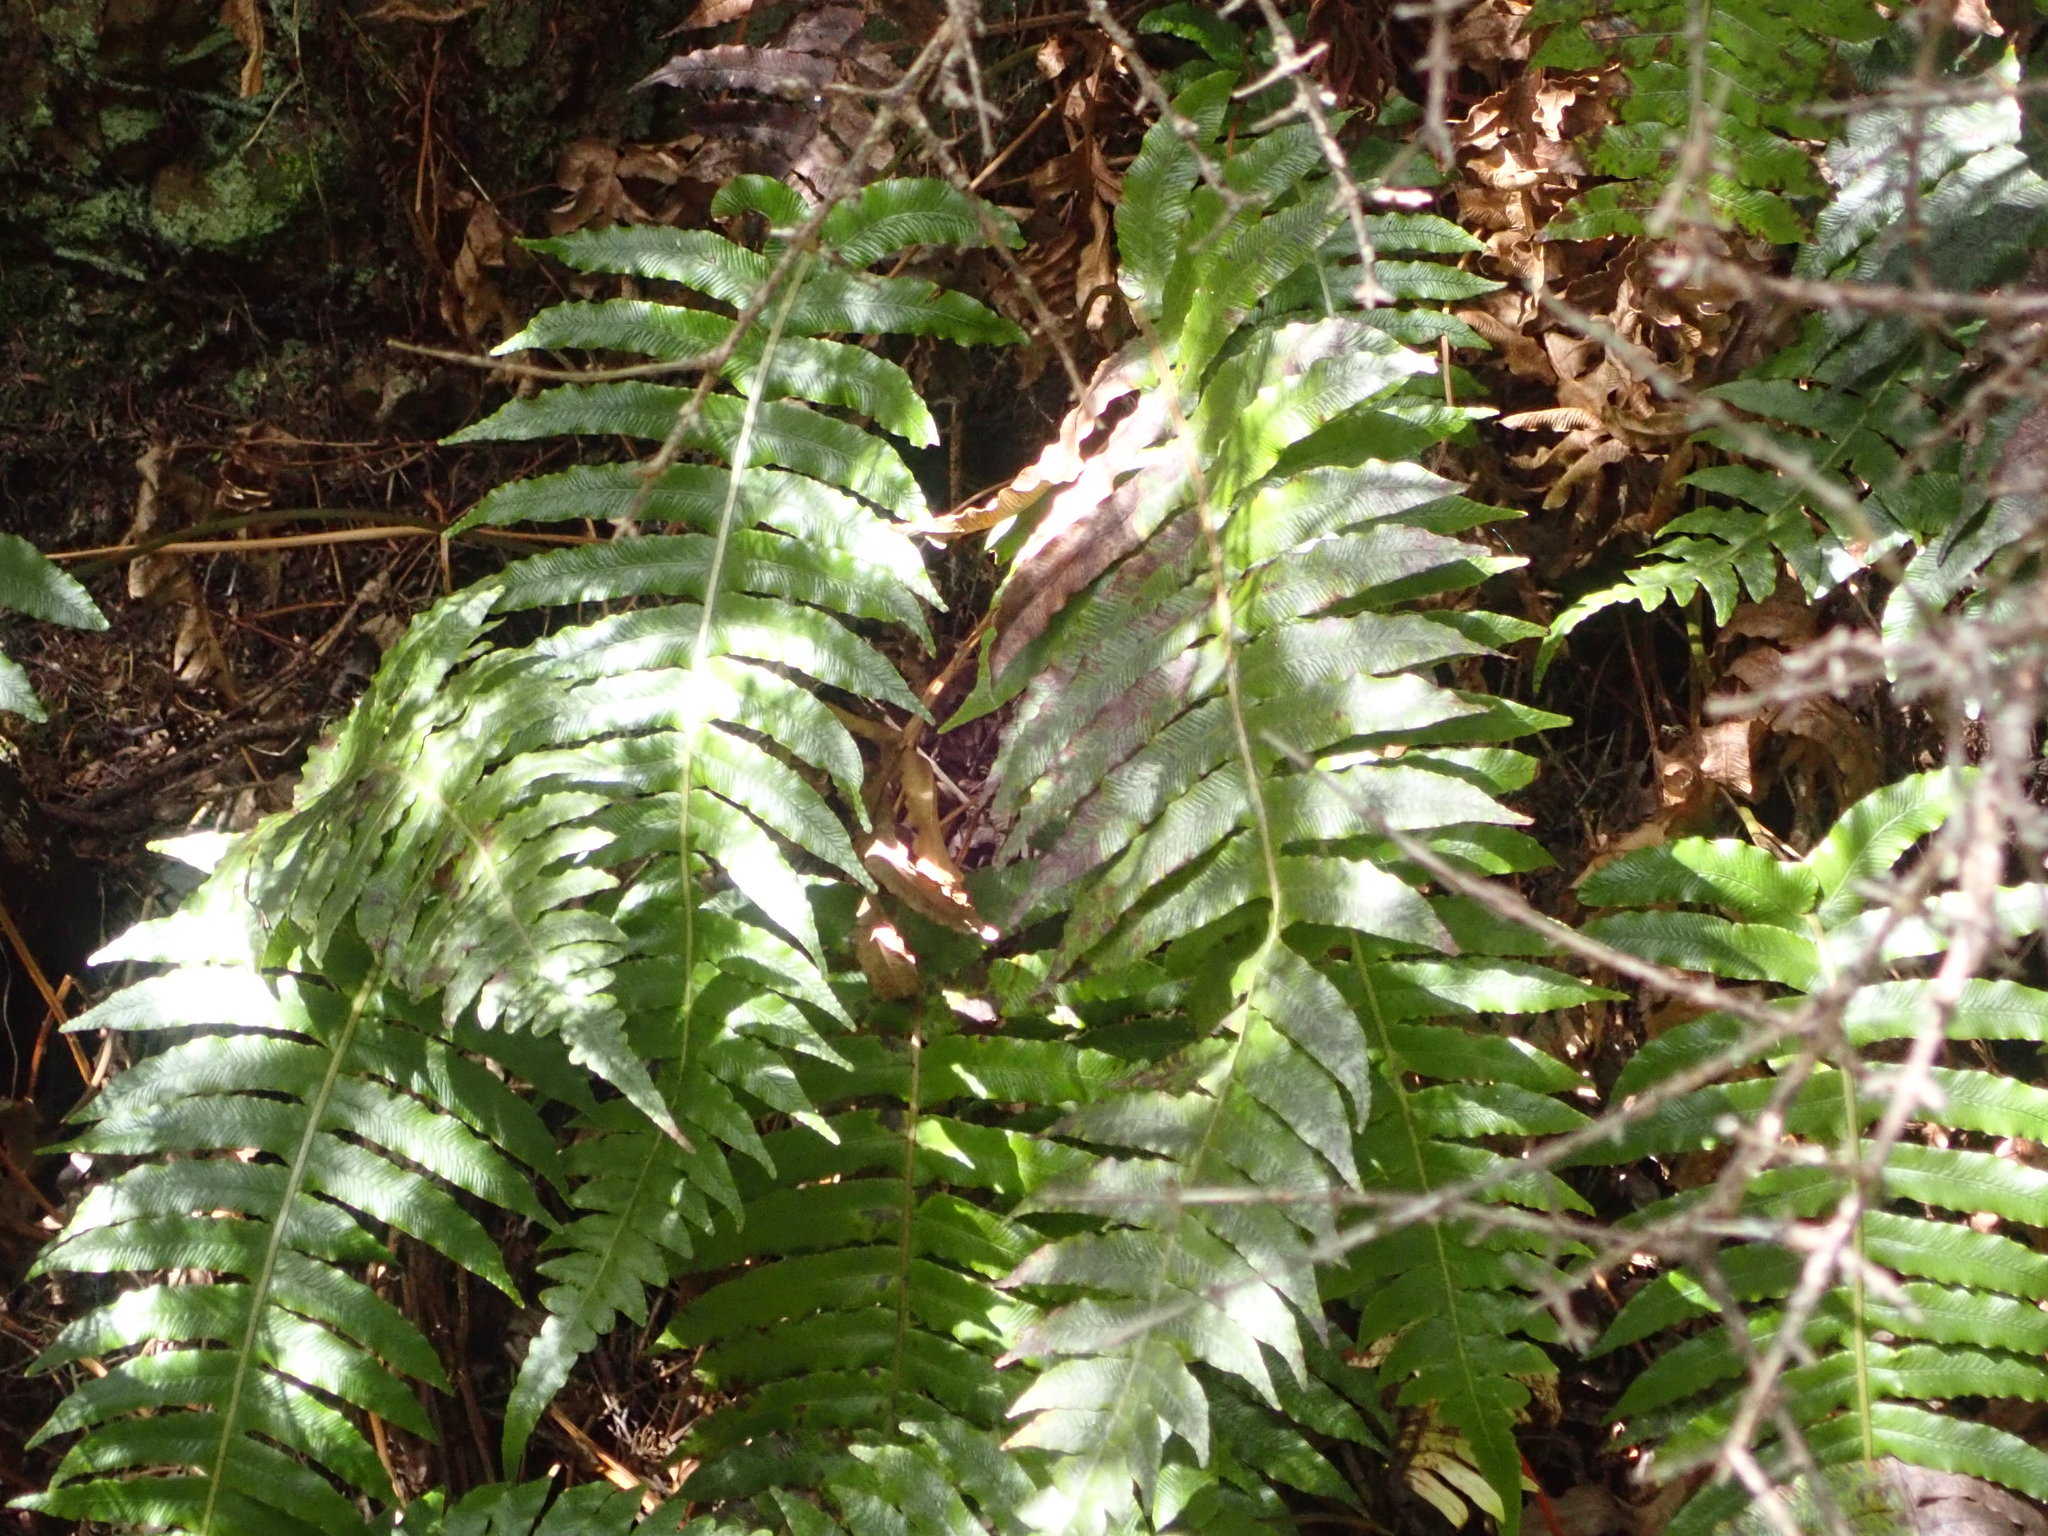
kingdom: Plantae
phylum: Tracheophyta
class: Polypodiopsida
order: Polypodiales
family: Blechnaceae
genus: Cranfillia
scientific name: Cranfillia deltoides
